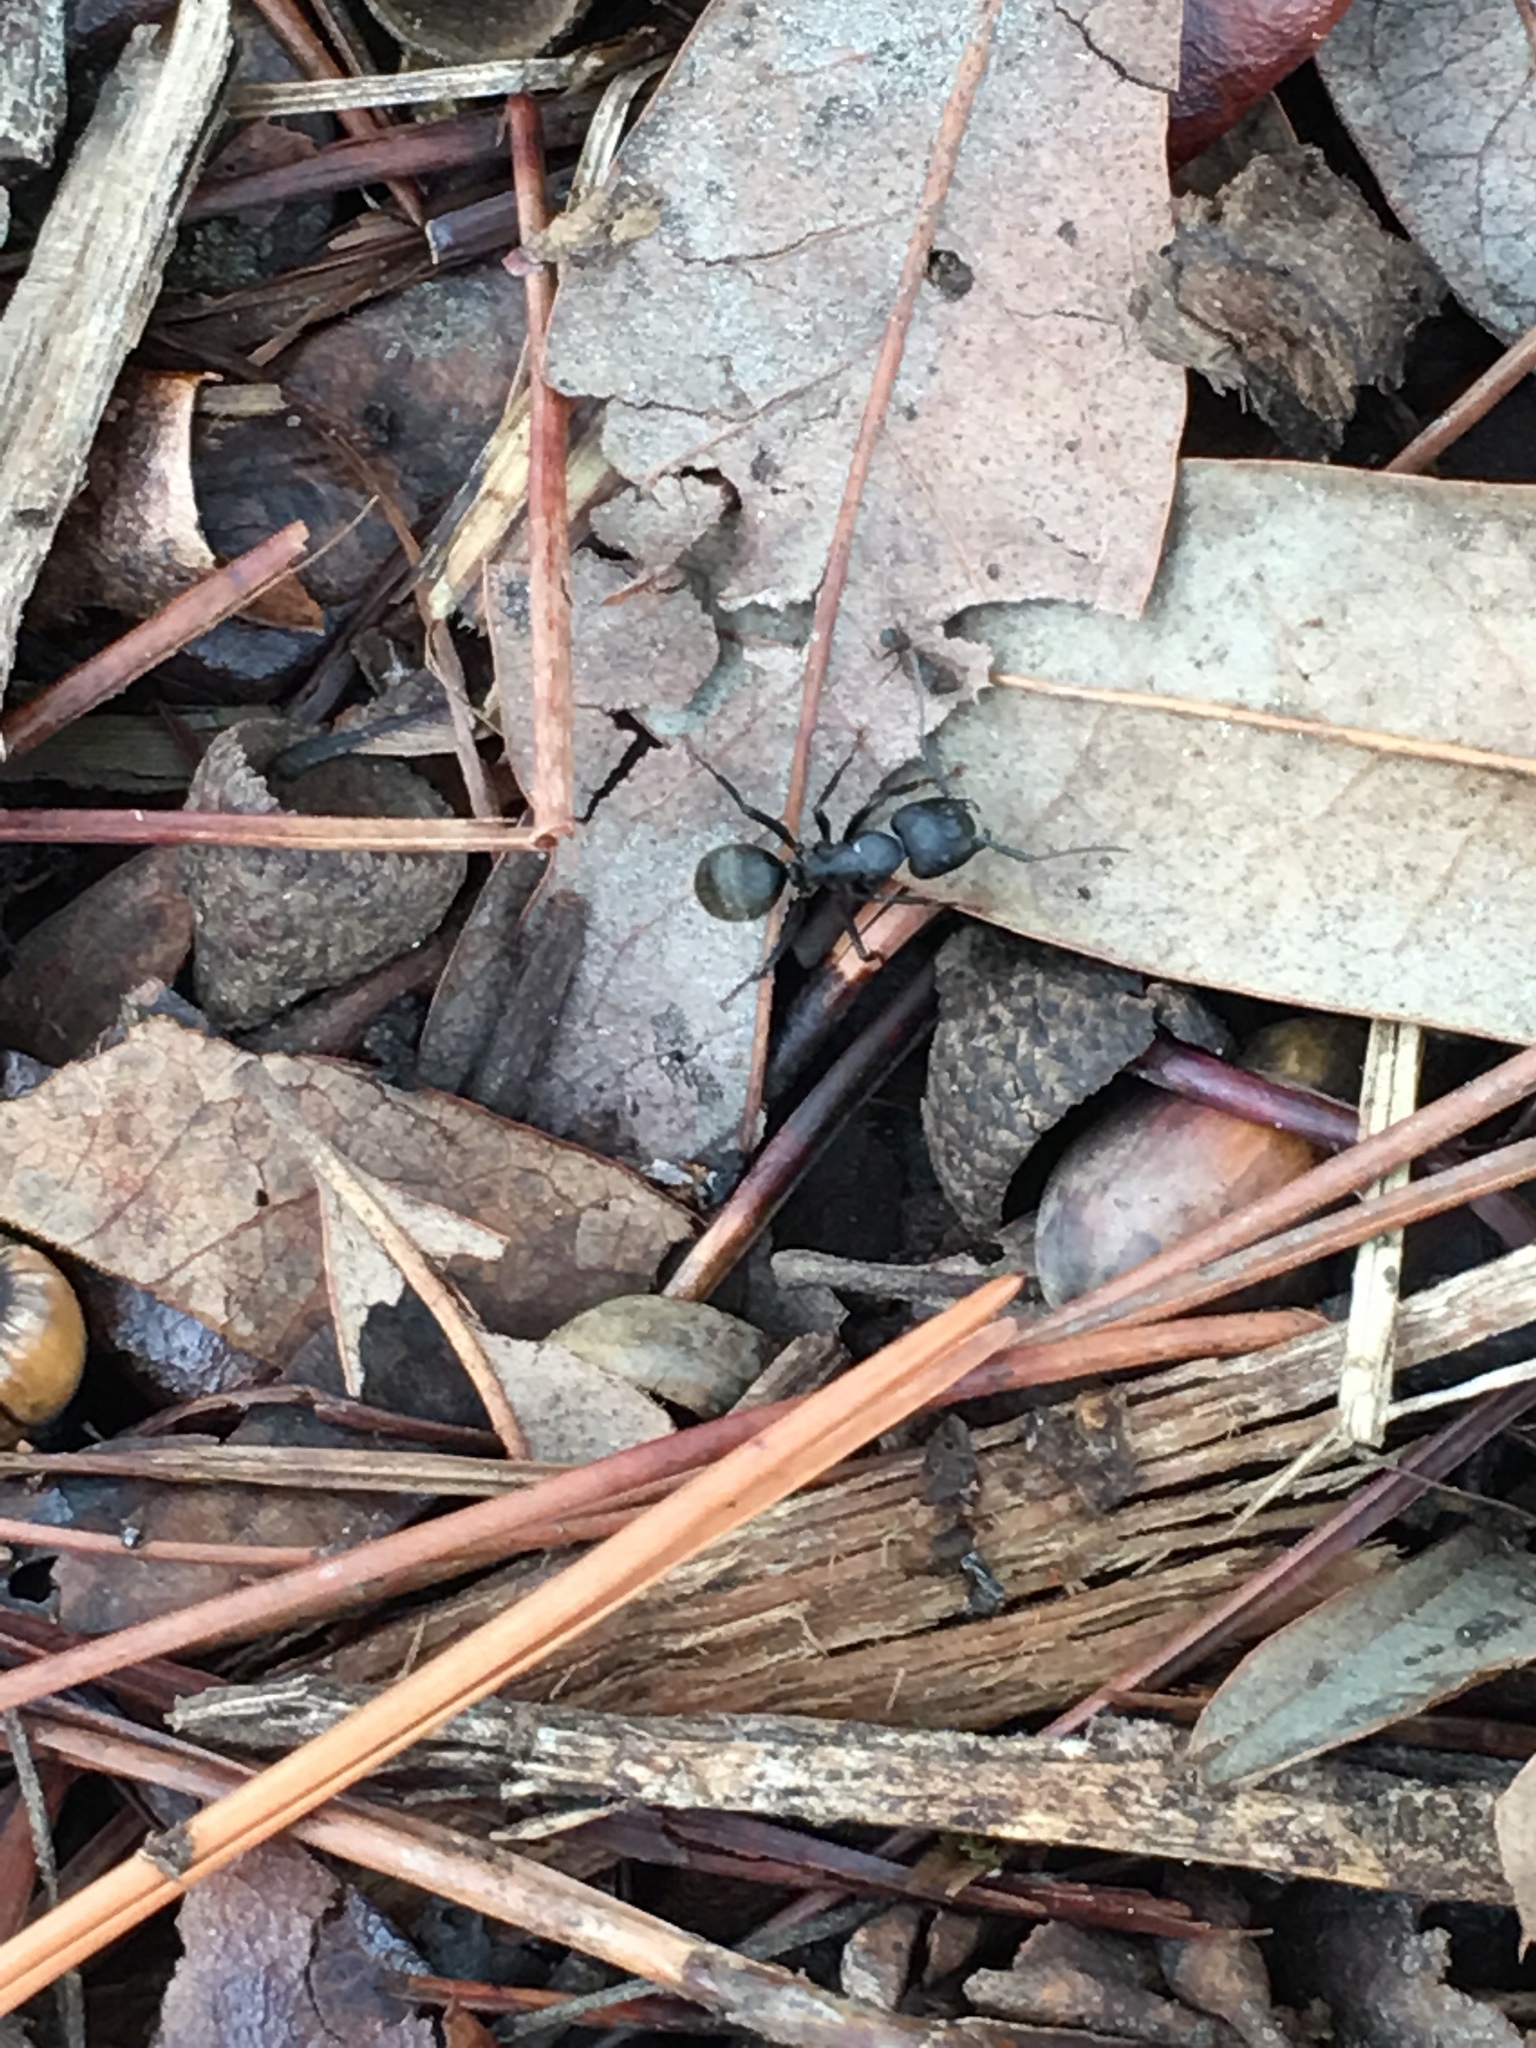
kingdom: Animalia
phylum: Arthropoda
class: Insecta
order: Hymenoptera
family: Formicidae
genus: Camponotus
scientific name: Camponotus pennsylvanicus
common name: Black carpenter ant
